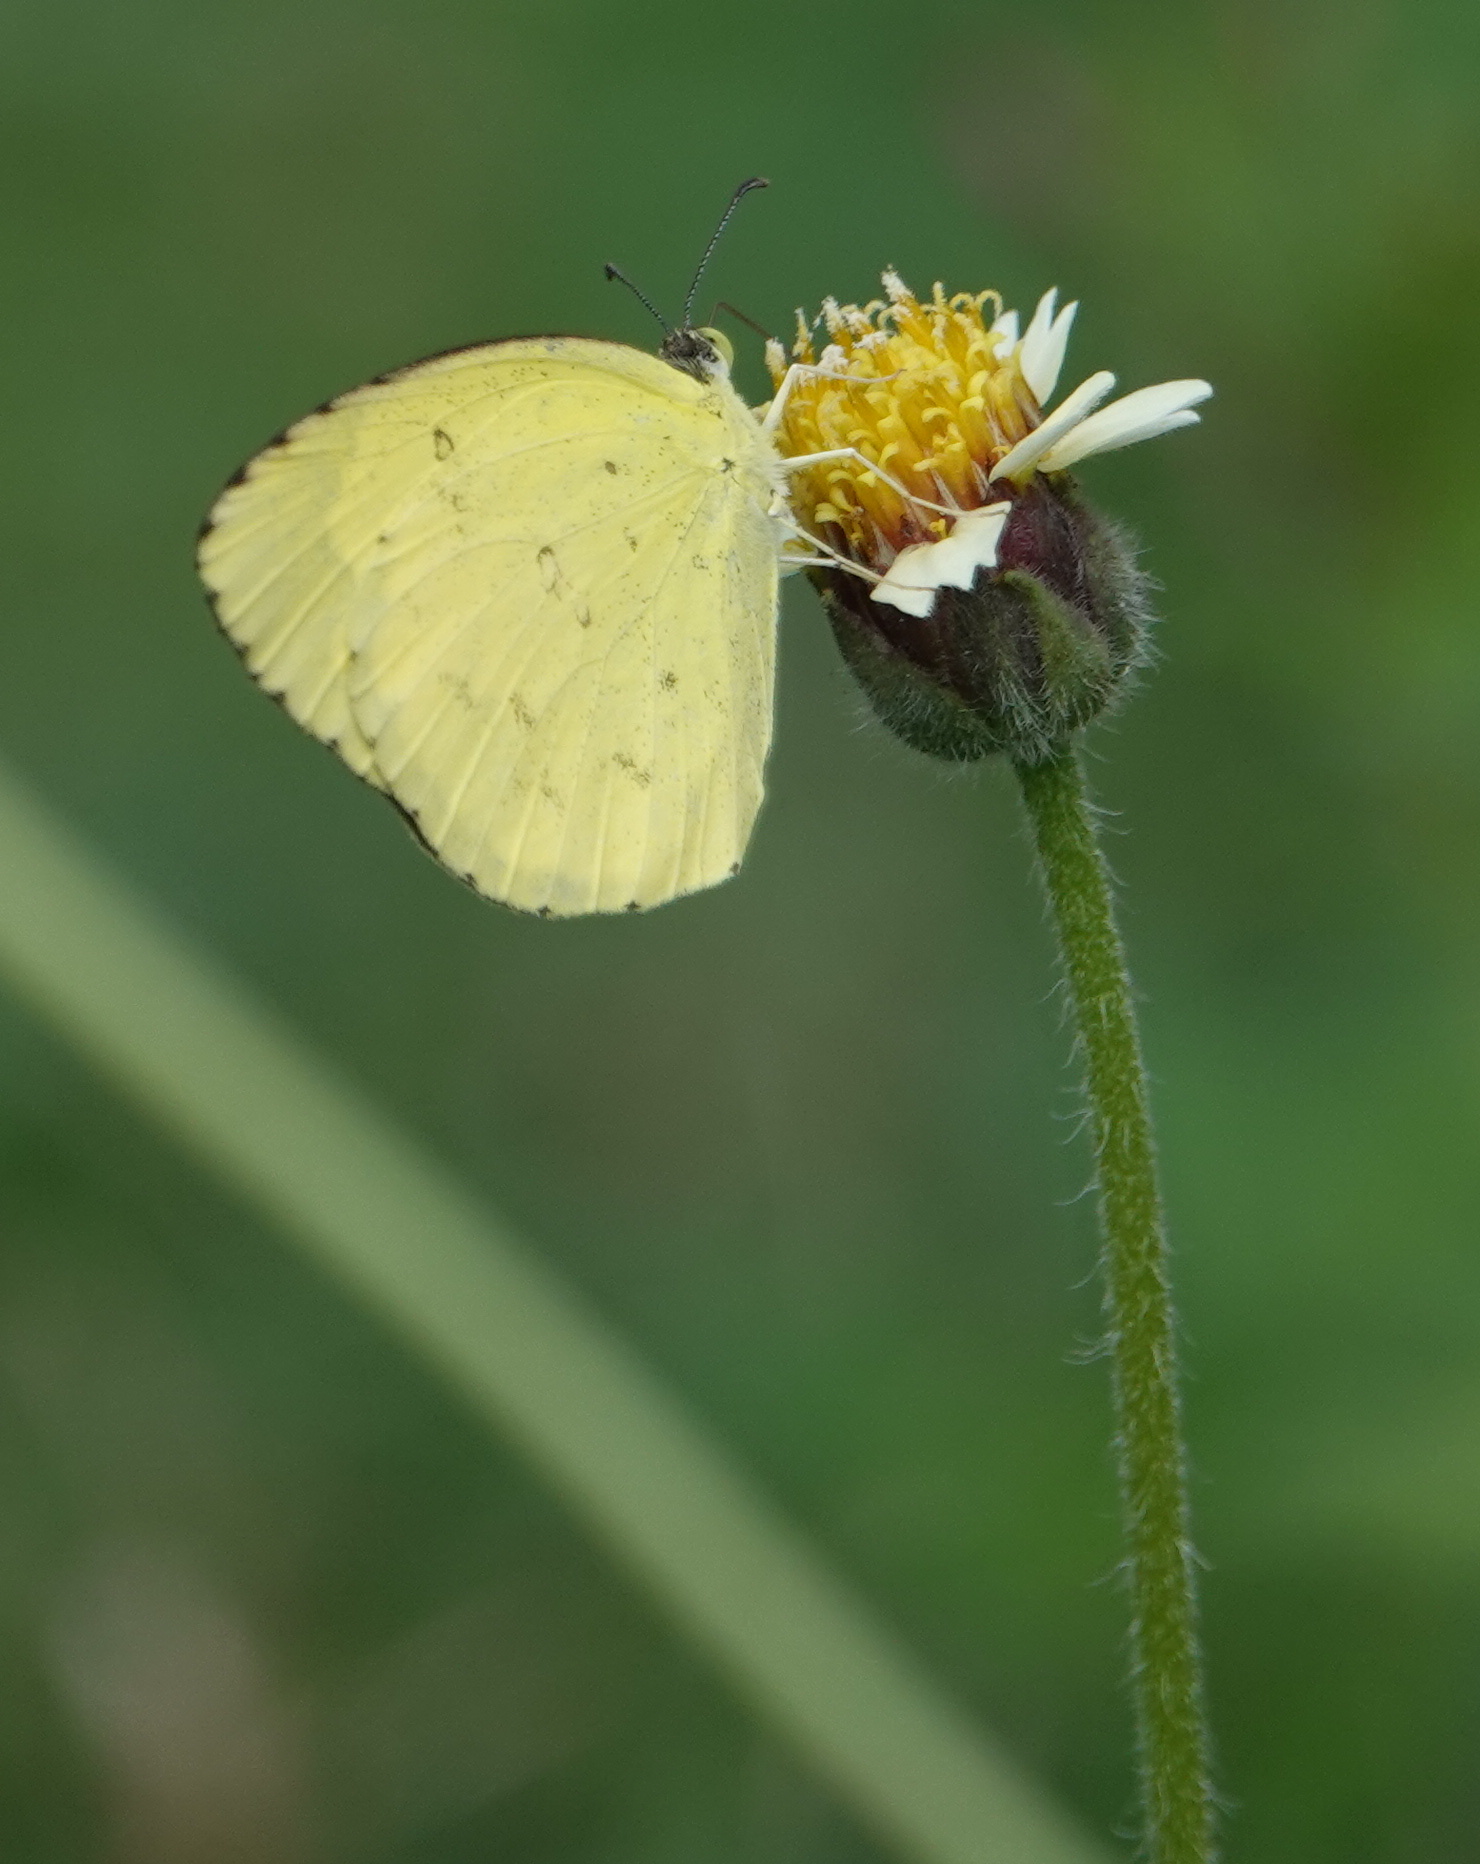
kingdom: Animalia
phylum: Arthropoda
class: Insecta
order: Lepidoptera
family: Pieridae
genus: Eurema
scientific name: Eurema hecabe
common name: Pale grass yellow
